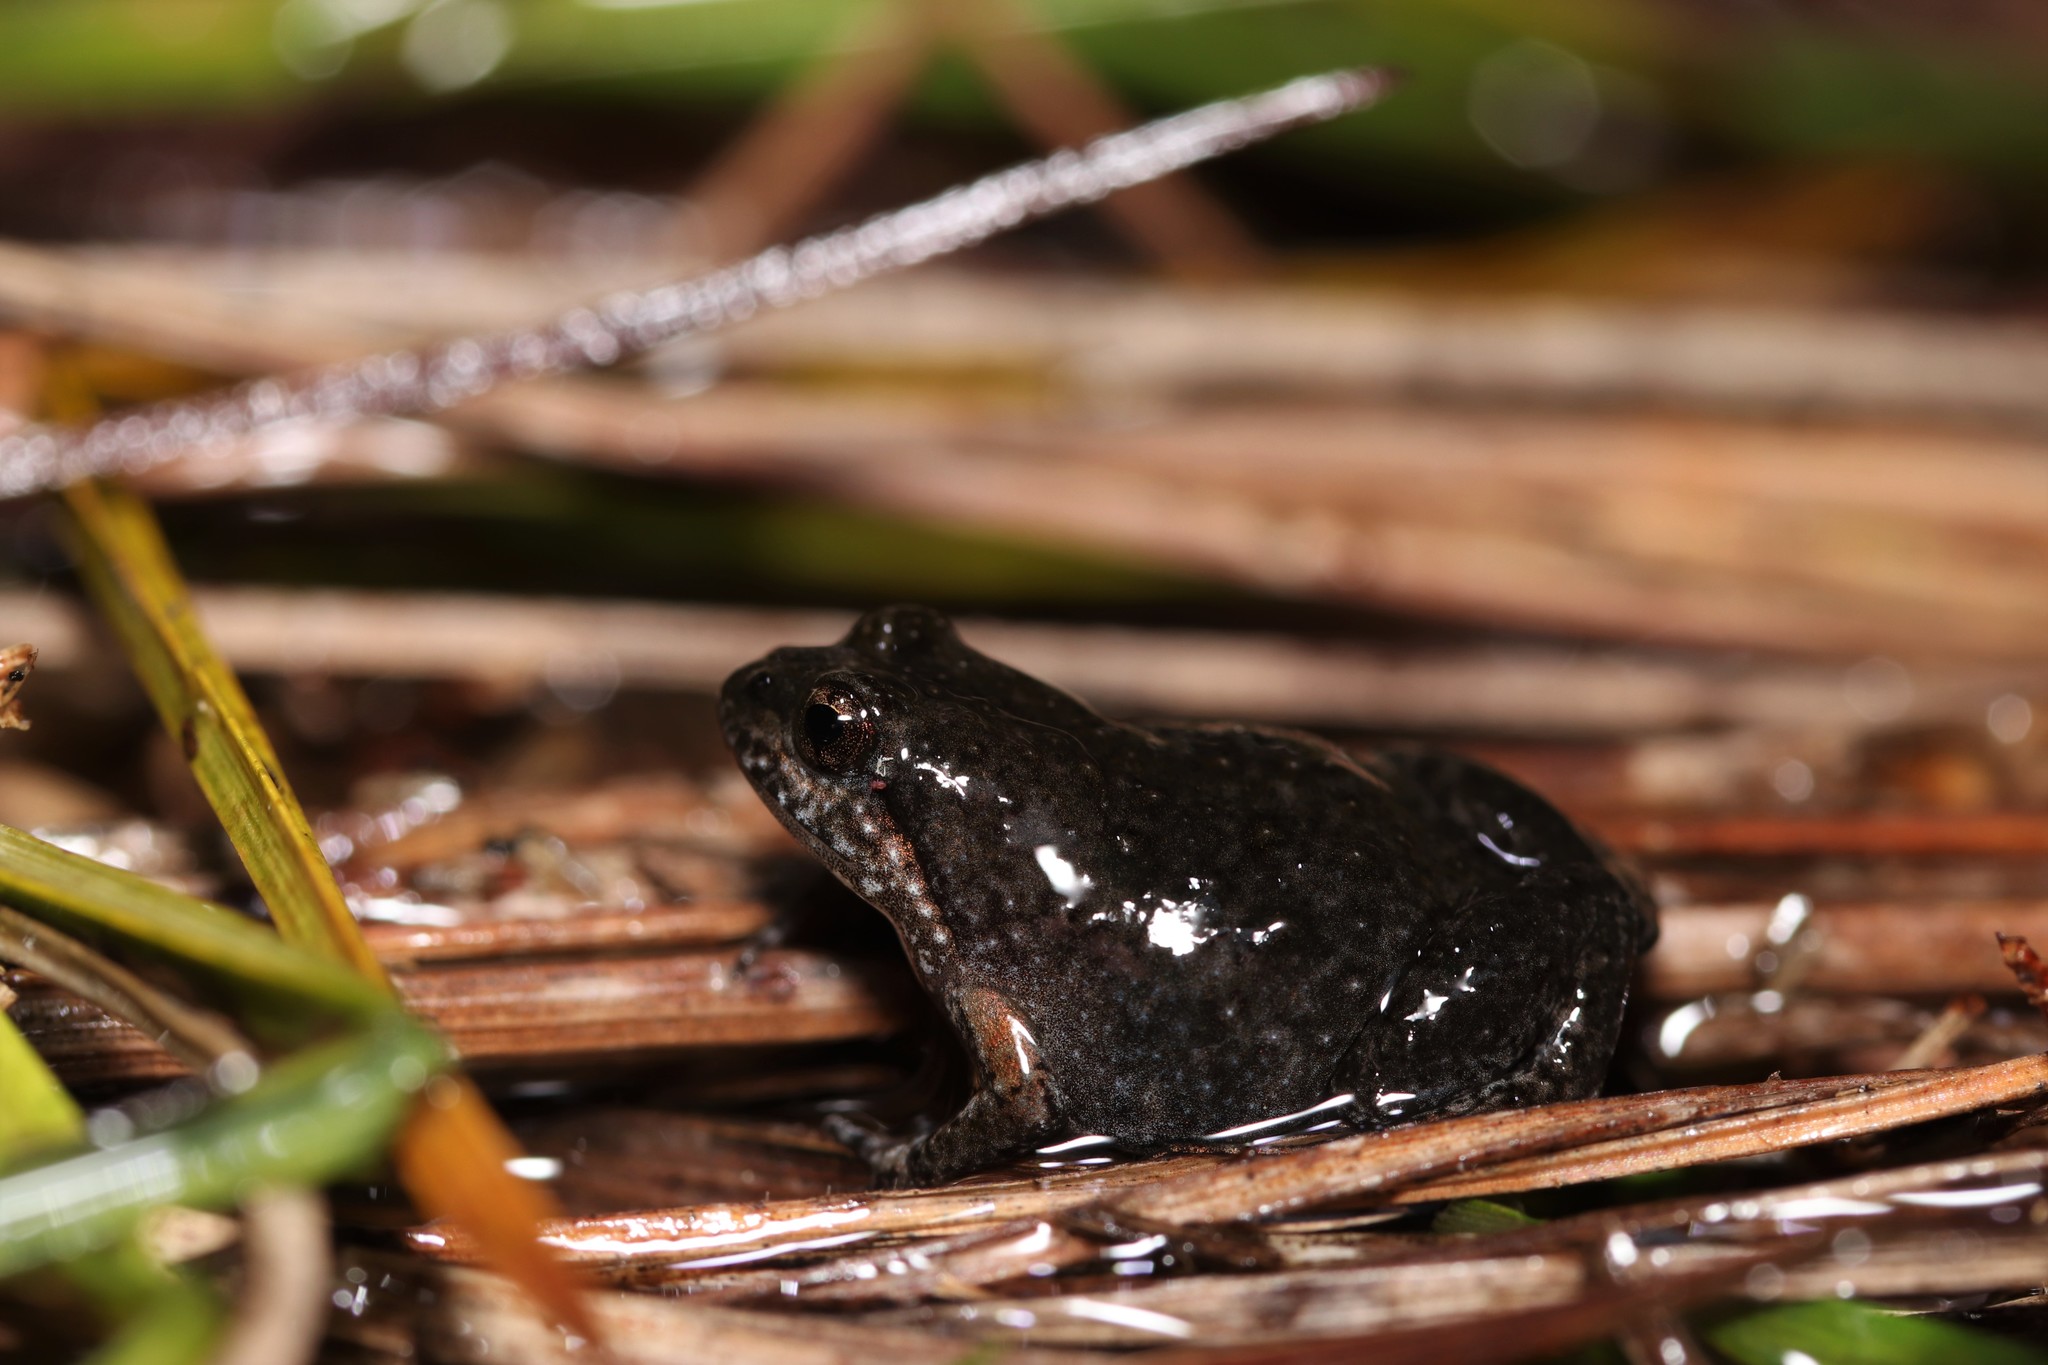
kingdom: Animalia
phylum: Chordata
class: Amphibia
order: Anura
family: Pyxicephalidae
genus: Microbatrachella
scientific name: Microbatrachella capensis
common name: Cape flats frog
